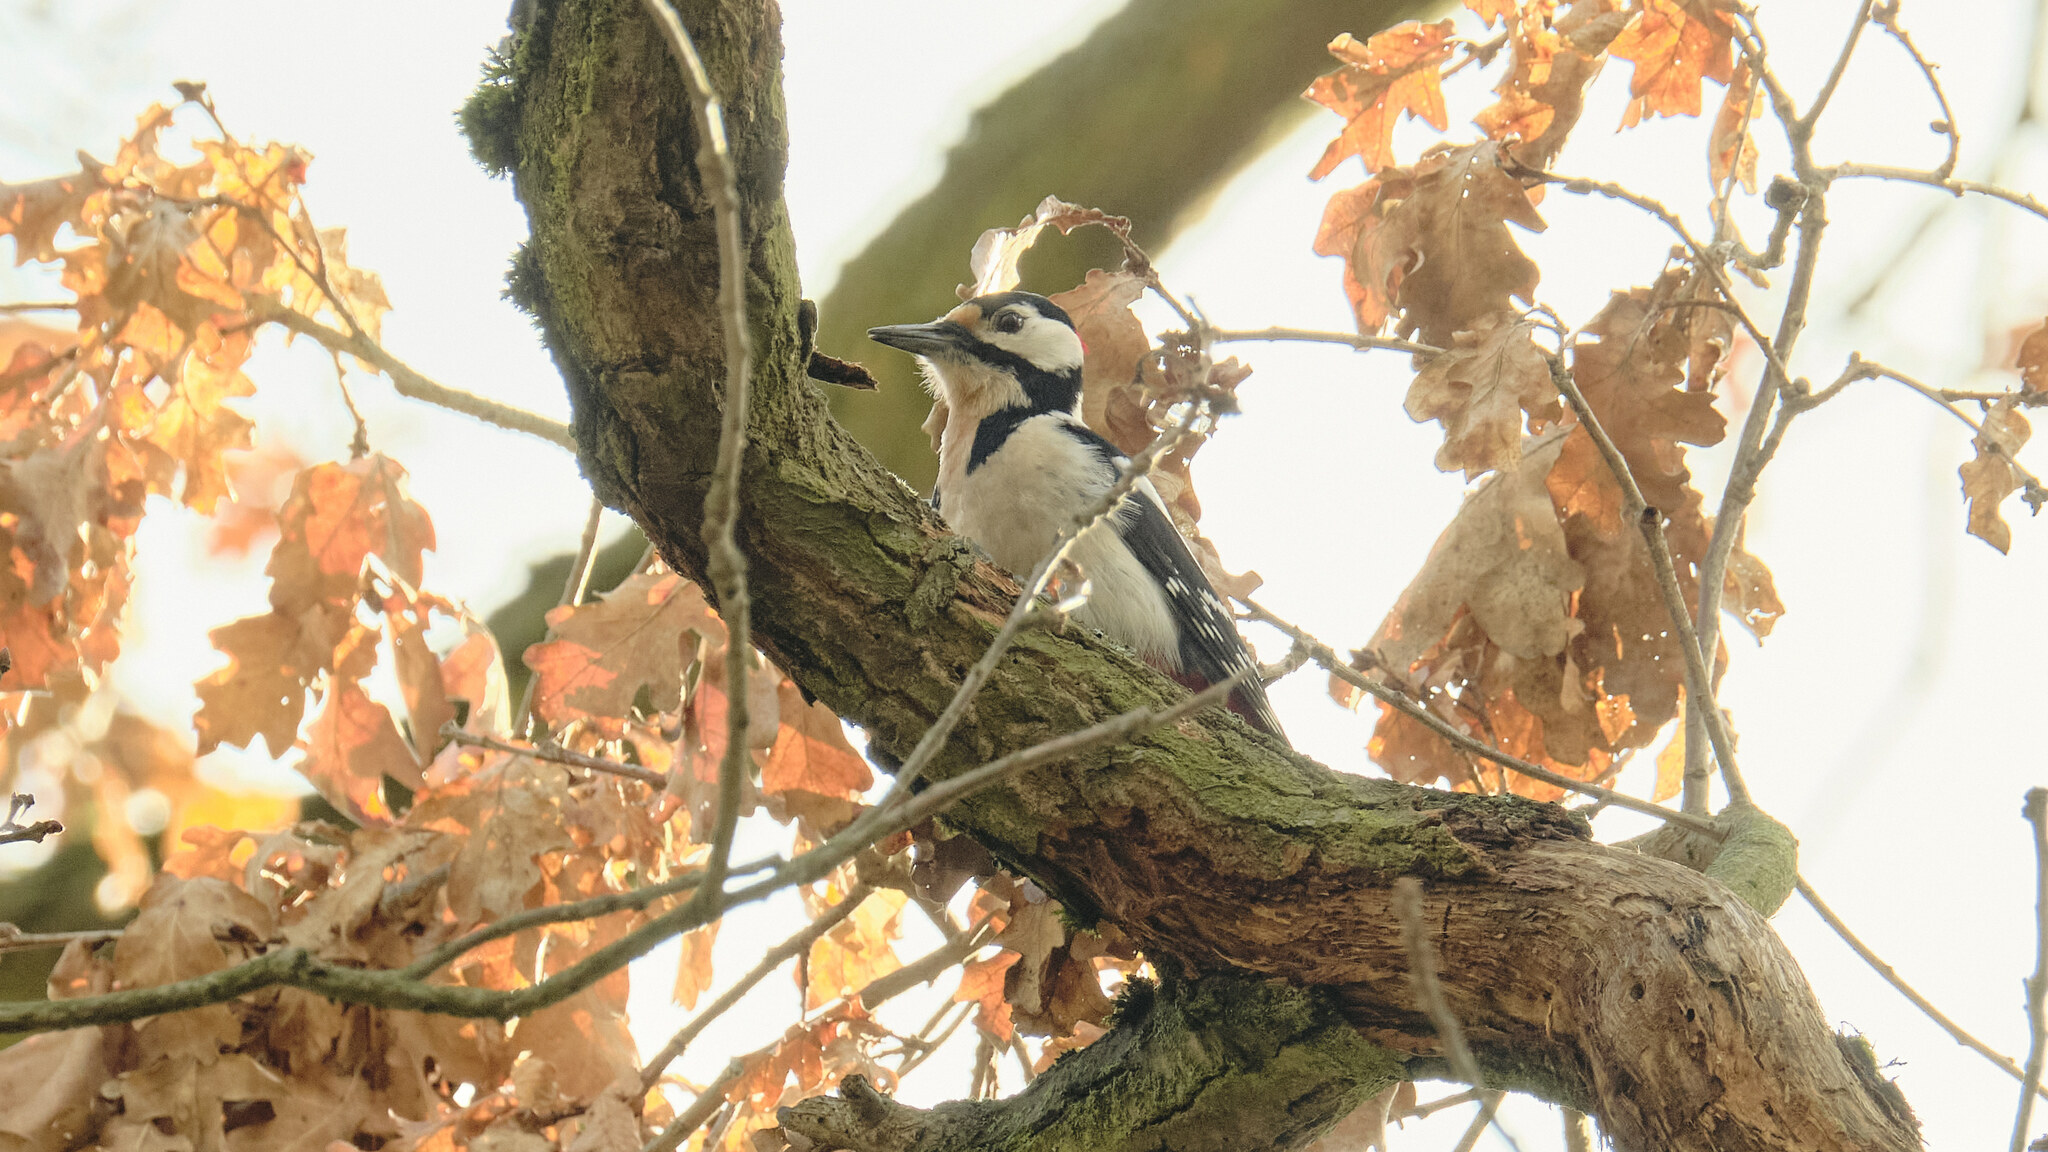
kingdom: Animalia
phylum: Chordata
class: Aves
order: Piciformes
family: Picidae
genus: Dendrocopos
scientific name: Dendrocopos major
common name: Great spotted woodpecker
